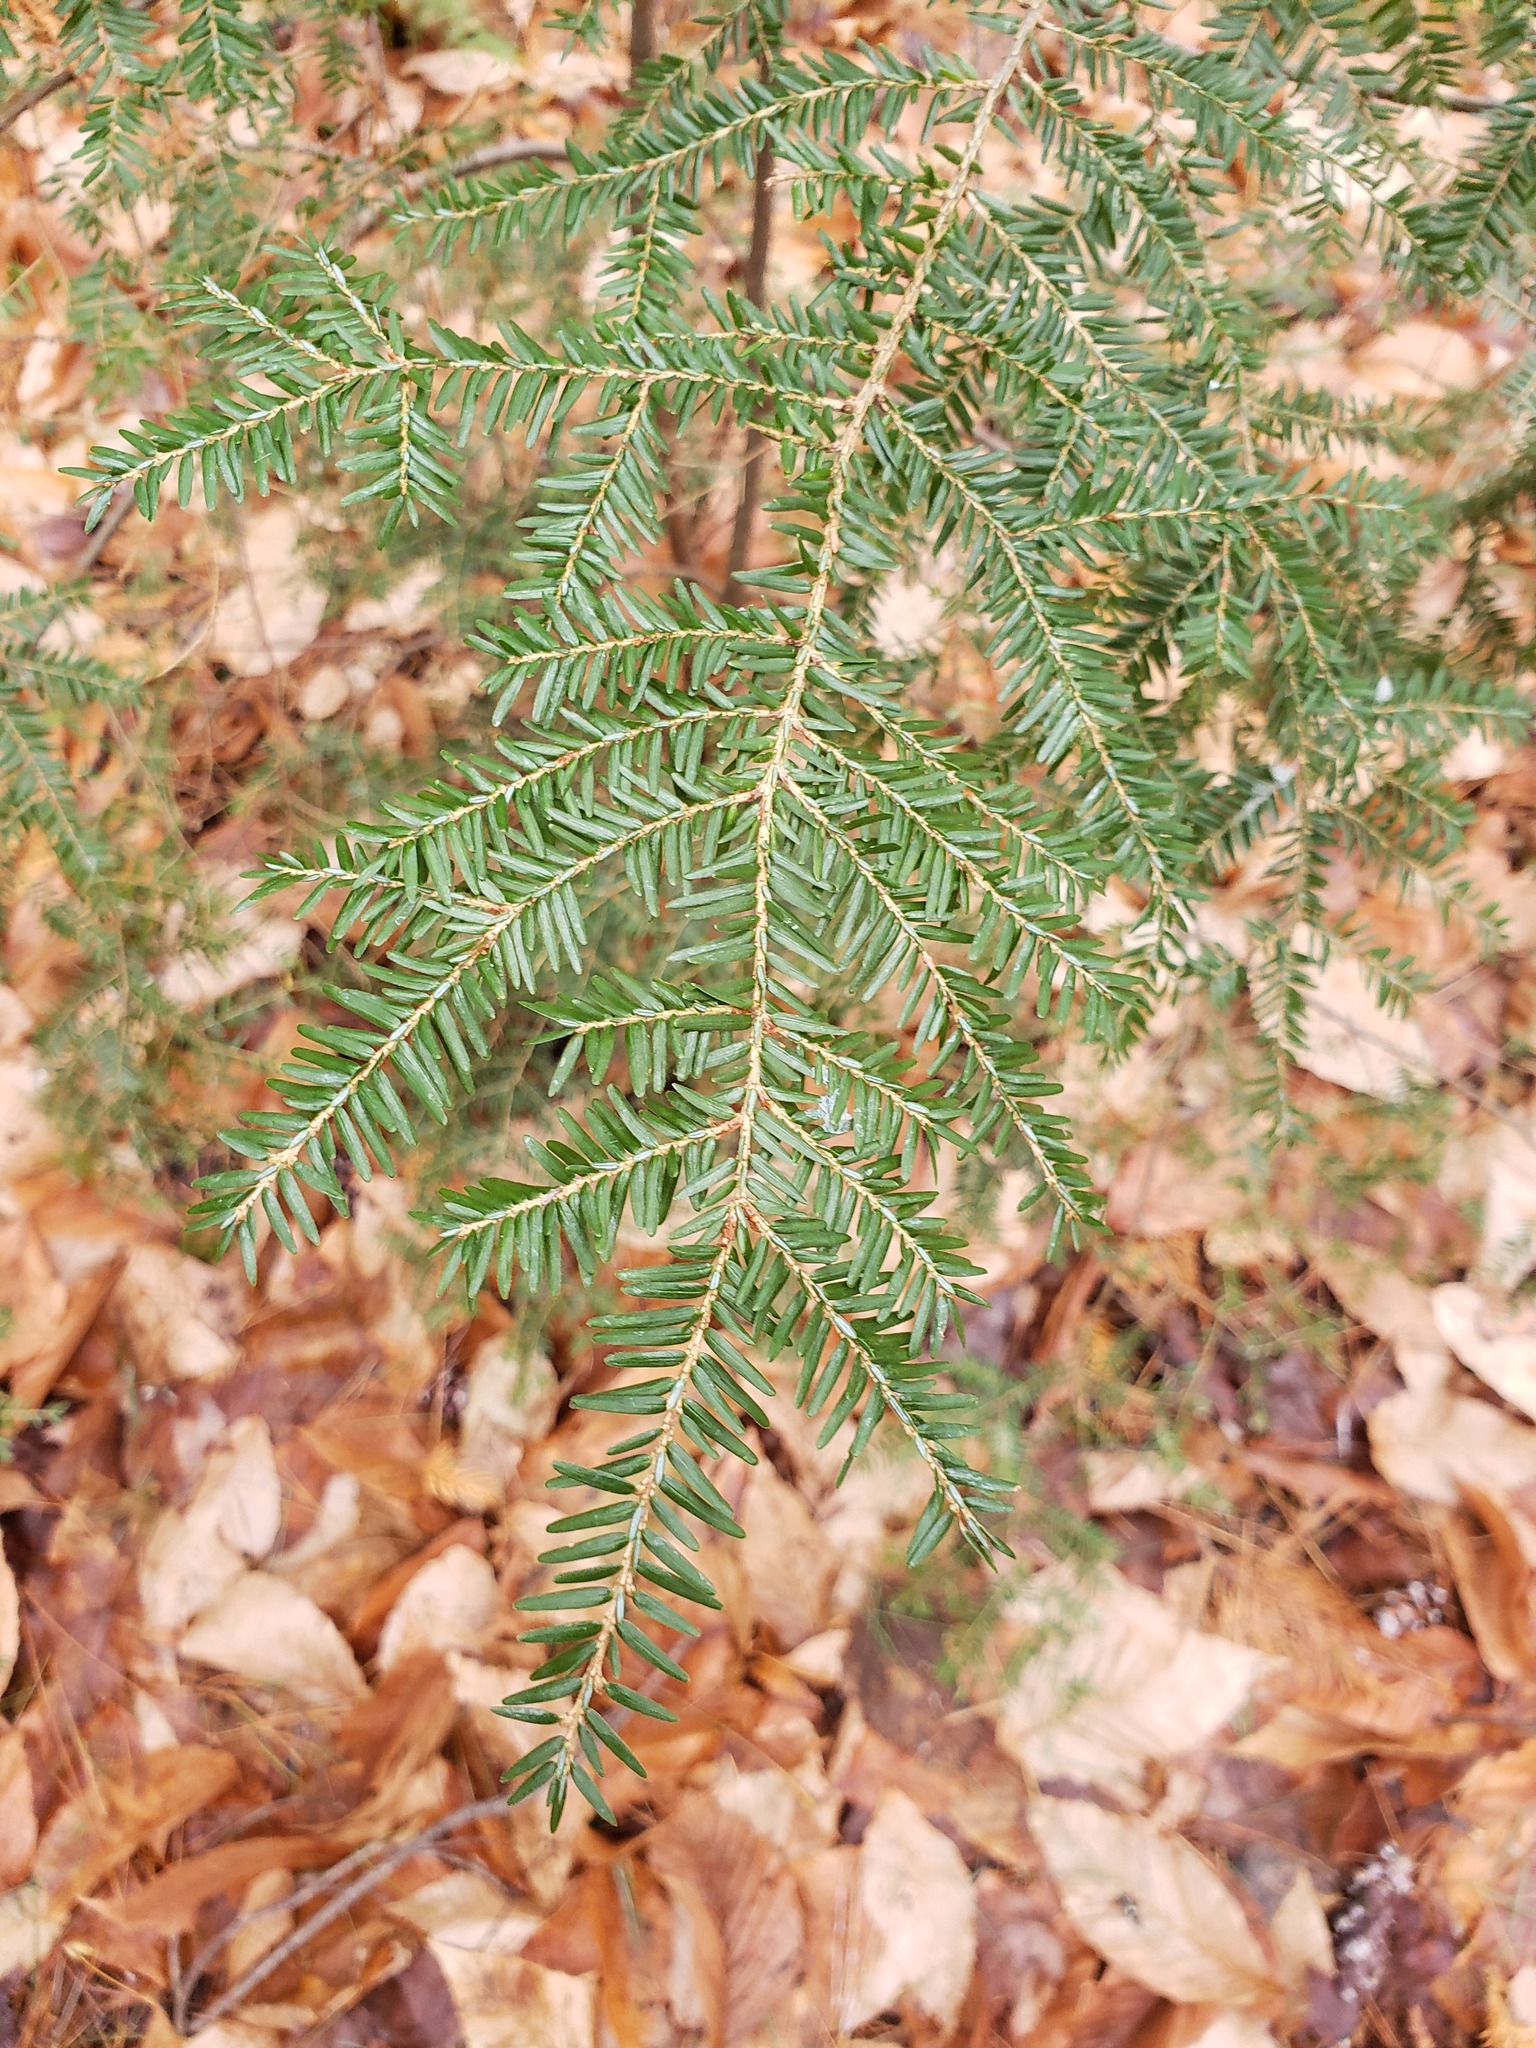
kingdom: Plantae
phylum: Tracheophyta
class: Pinopsida
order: Pinales
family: Pinaceae
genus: Tsuga
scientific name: Tsuga canadensis
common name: Eastern hemlock
